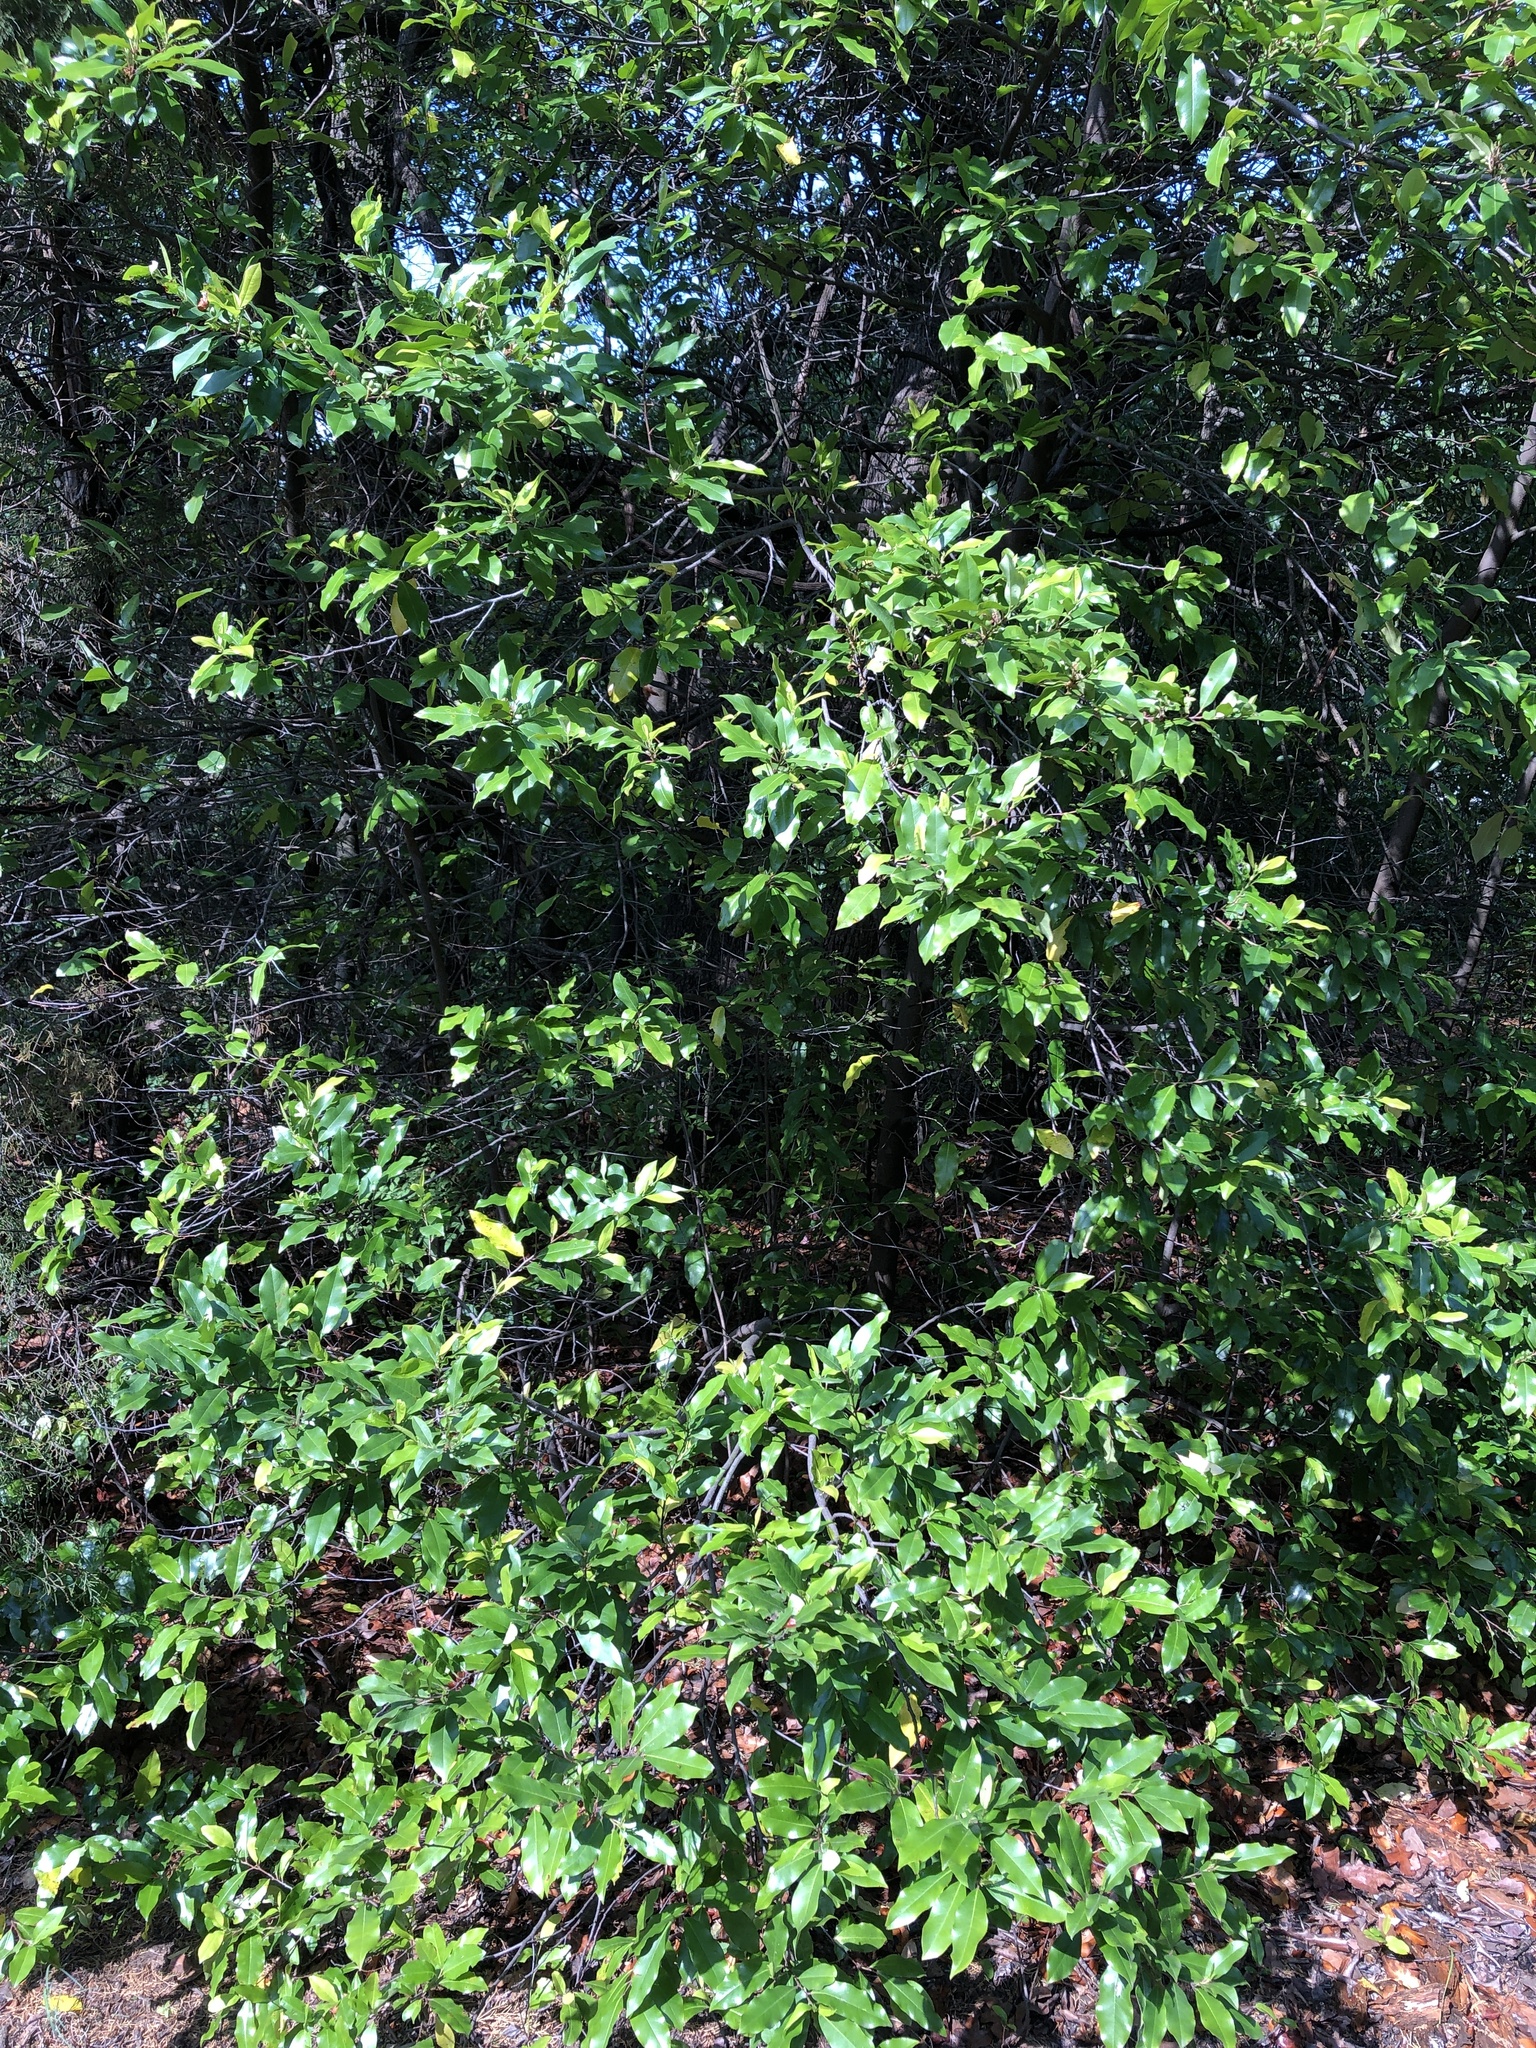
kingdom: Plantae
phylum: Tracheophyta
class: Magnoliopsida
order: Rosales
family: Rosaceae
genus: Prunus
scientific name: Prunus caroliniana
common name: Carolina laurel cherry
